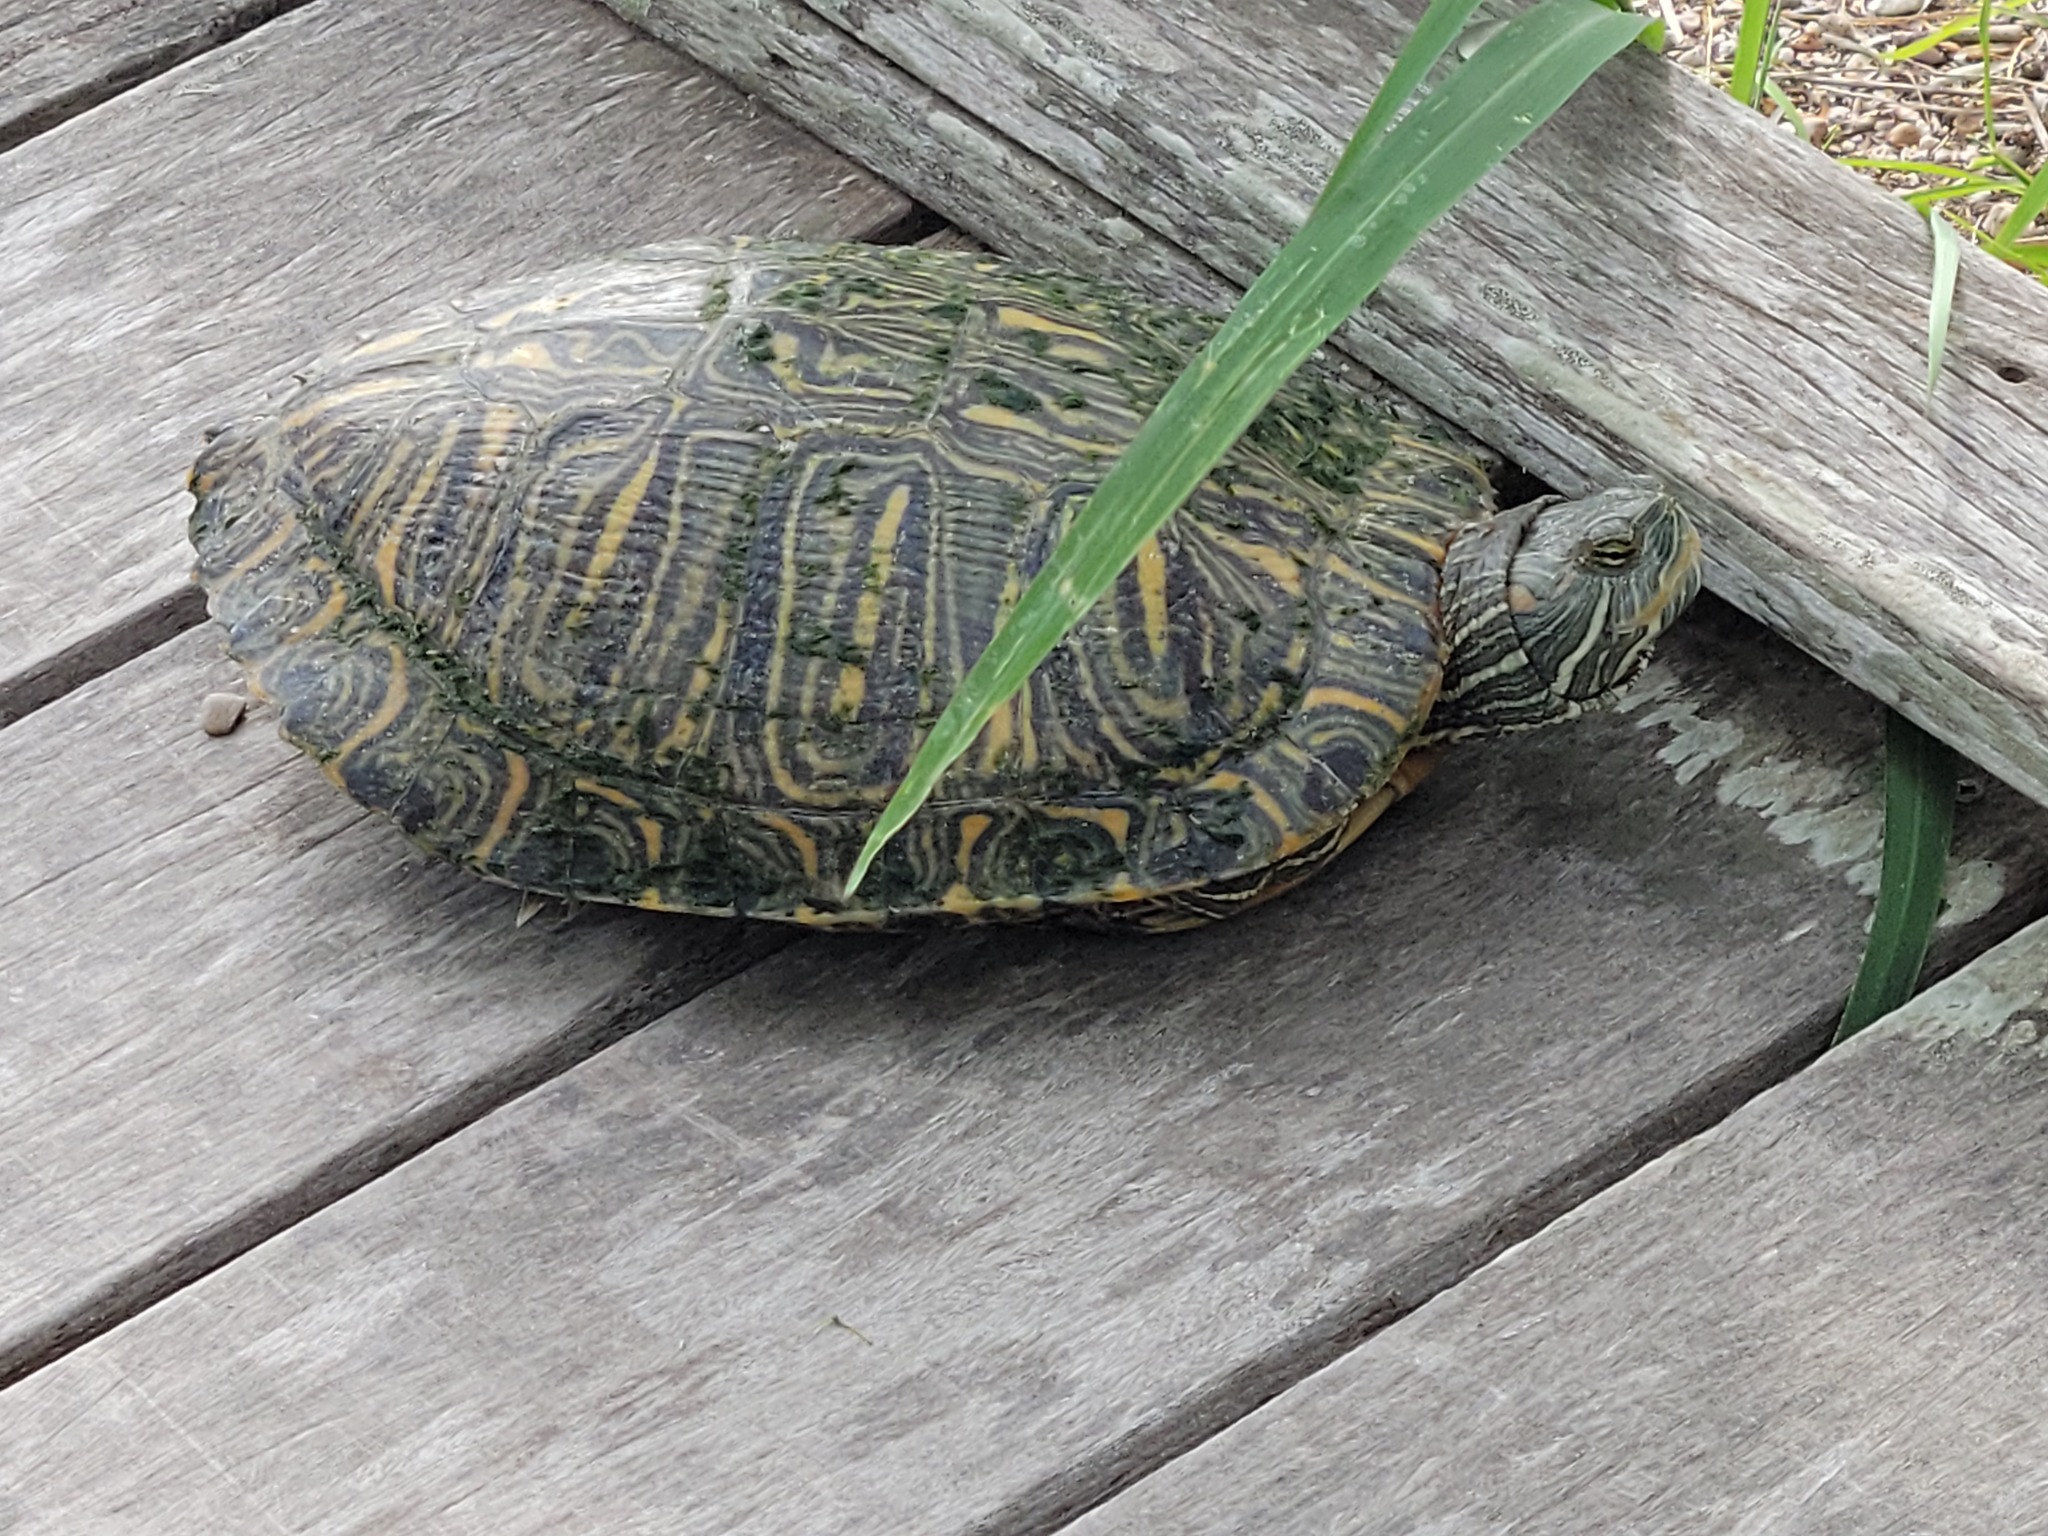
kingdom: Animalia
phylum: Chordata
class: Testudines
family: Emydidae
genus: Trachemys
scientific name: Trachemys scripta
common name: Slider
